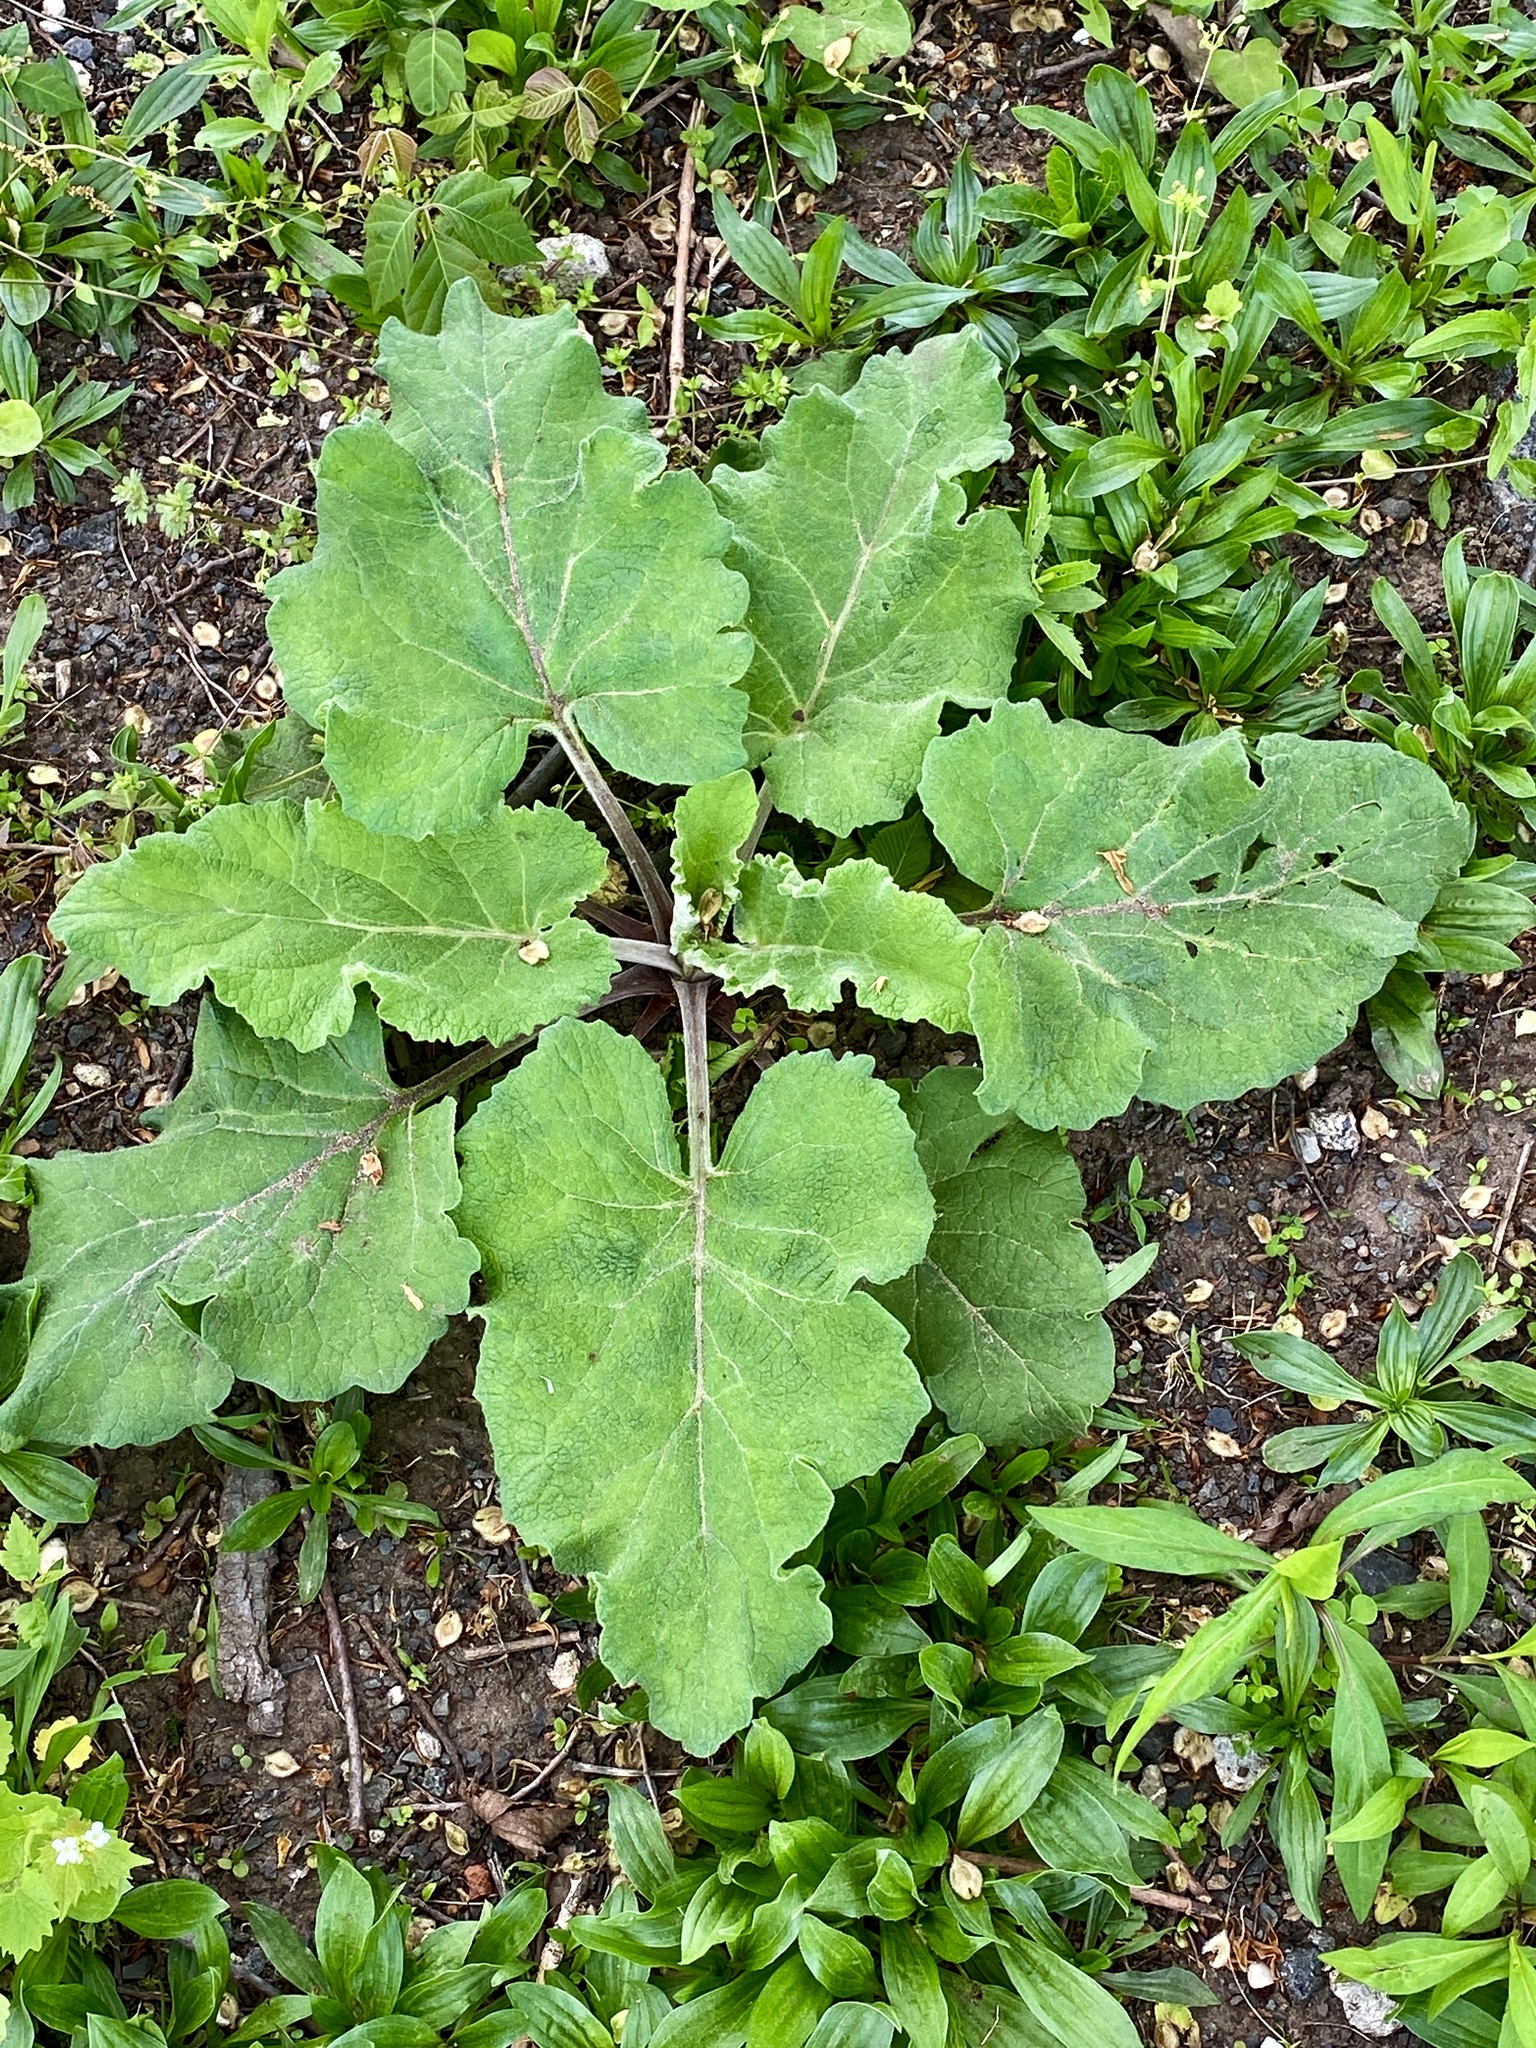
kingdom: Plantae
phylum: Tracheophyta
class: Magnoliopsida
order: Asterales
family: Asteraceae
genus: Arctium
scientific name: Arctium minus
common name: Lesser burdock
